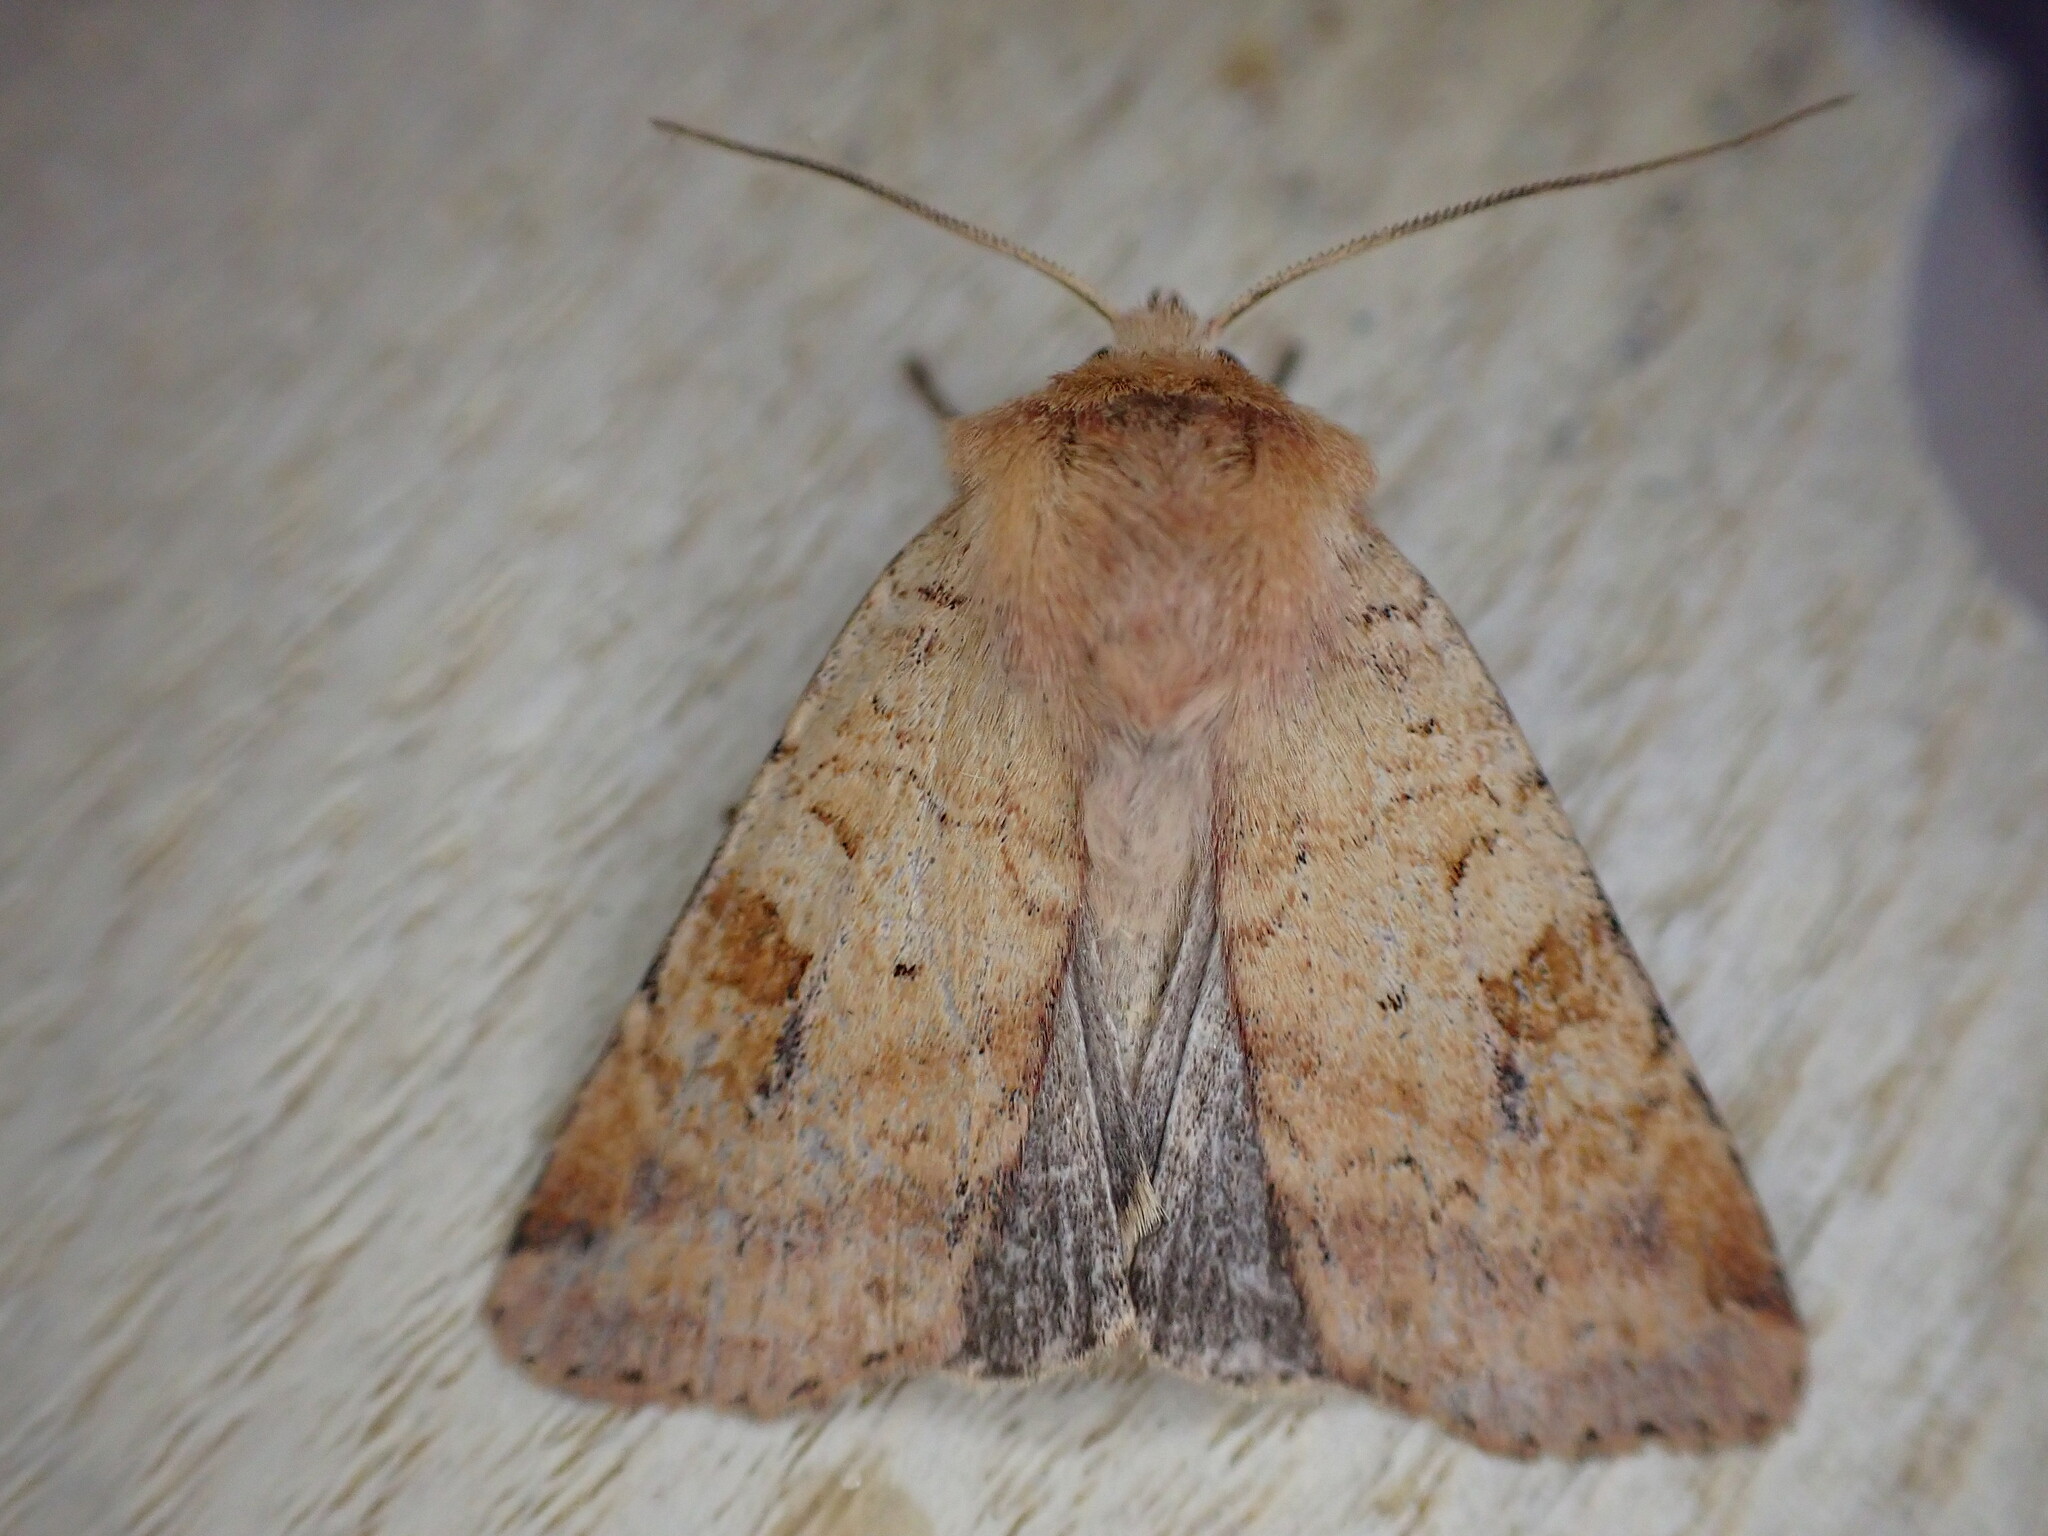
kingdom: Animalia
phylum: Arthropoda
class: Insecta
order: Lepidoptera
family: Noctuidae
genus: Diarsia
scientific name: Diarsia mendica
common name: Ingrailed clay
